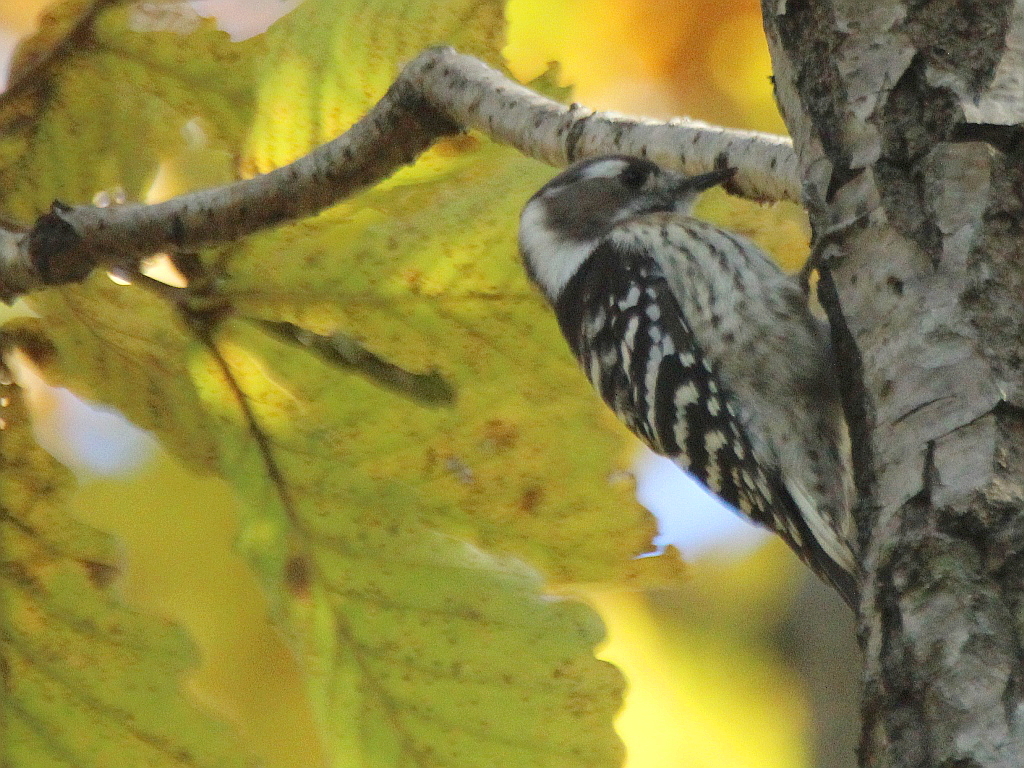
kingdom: Animalia
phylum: Chordata
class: Aves
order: Piciformes
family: Picidae
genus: Yungipicus
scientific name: Yungipicus kizuki
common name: Japanese pygmy woodpecker
